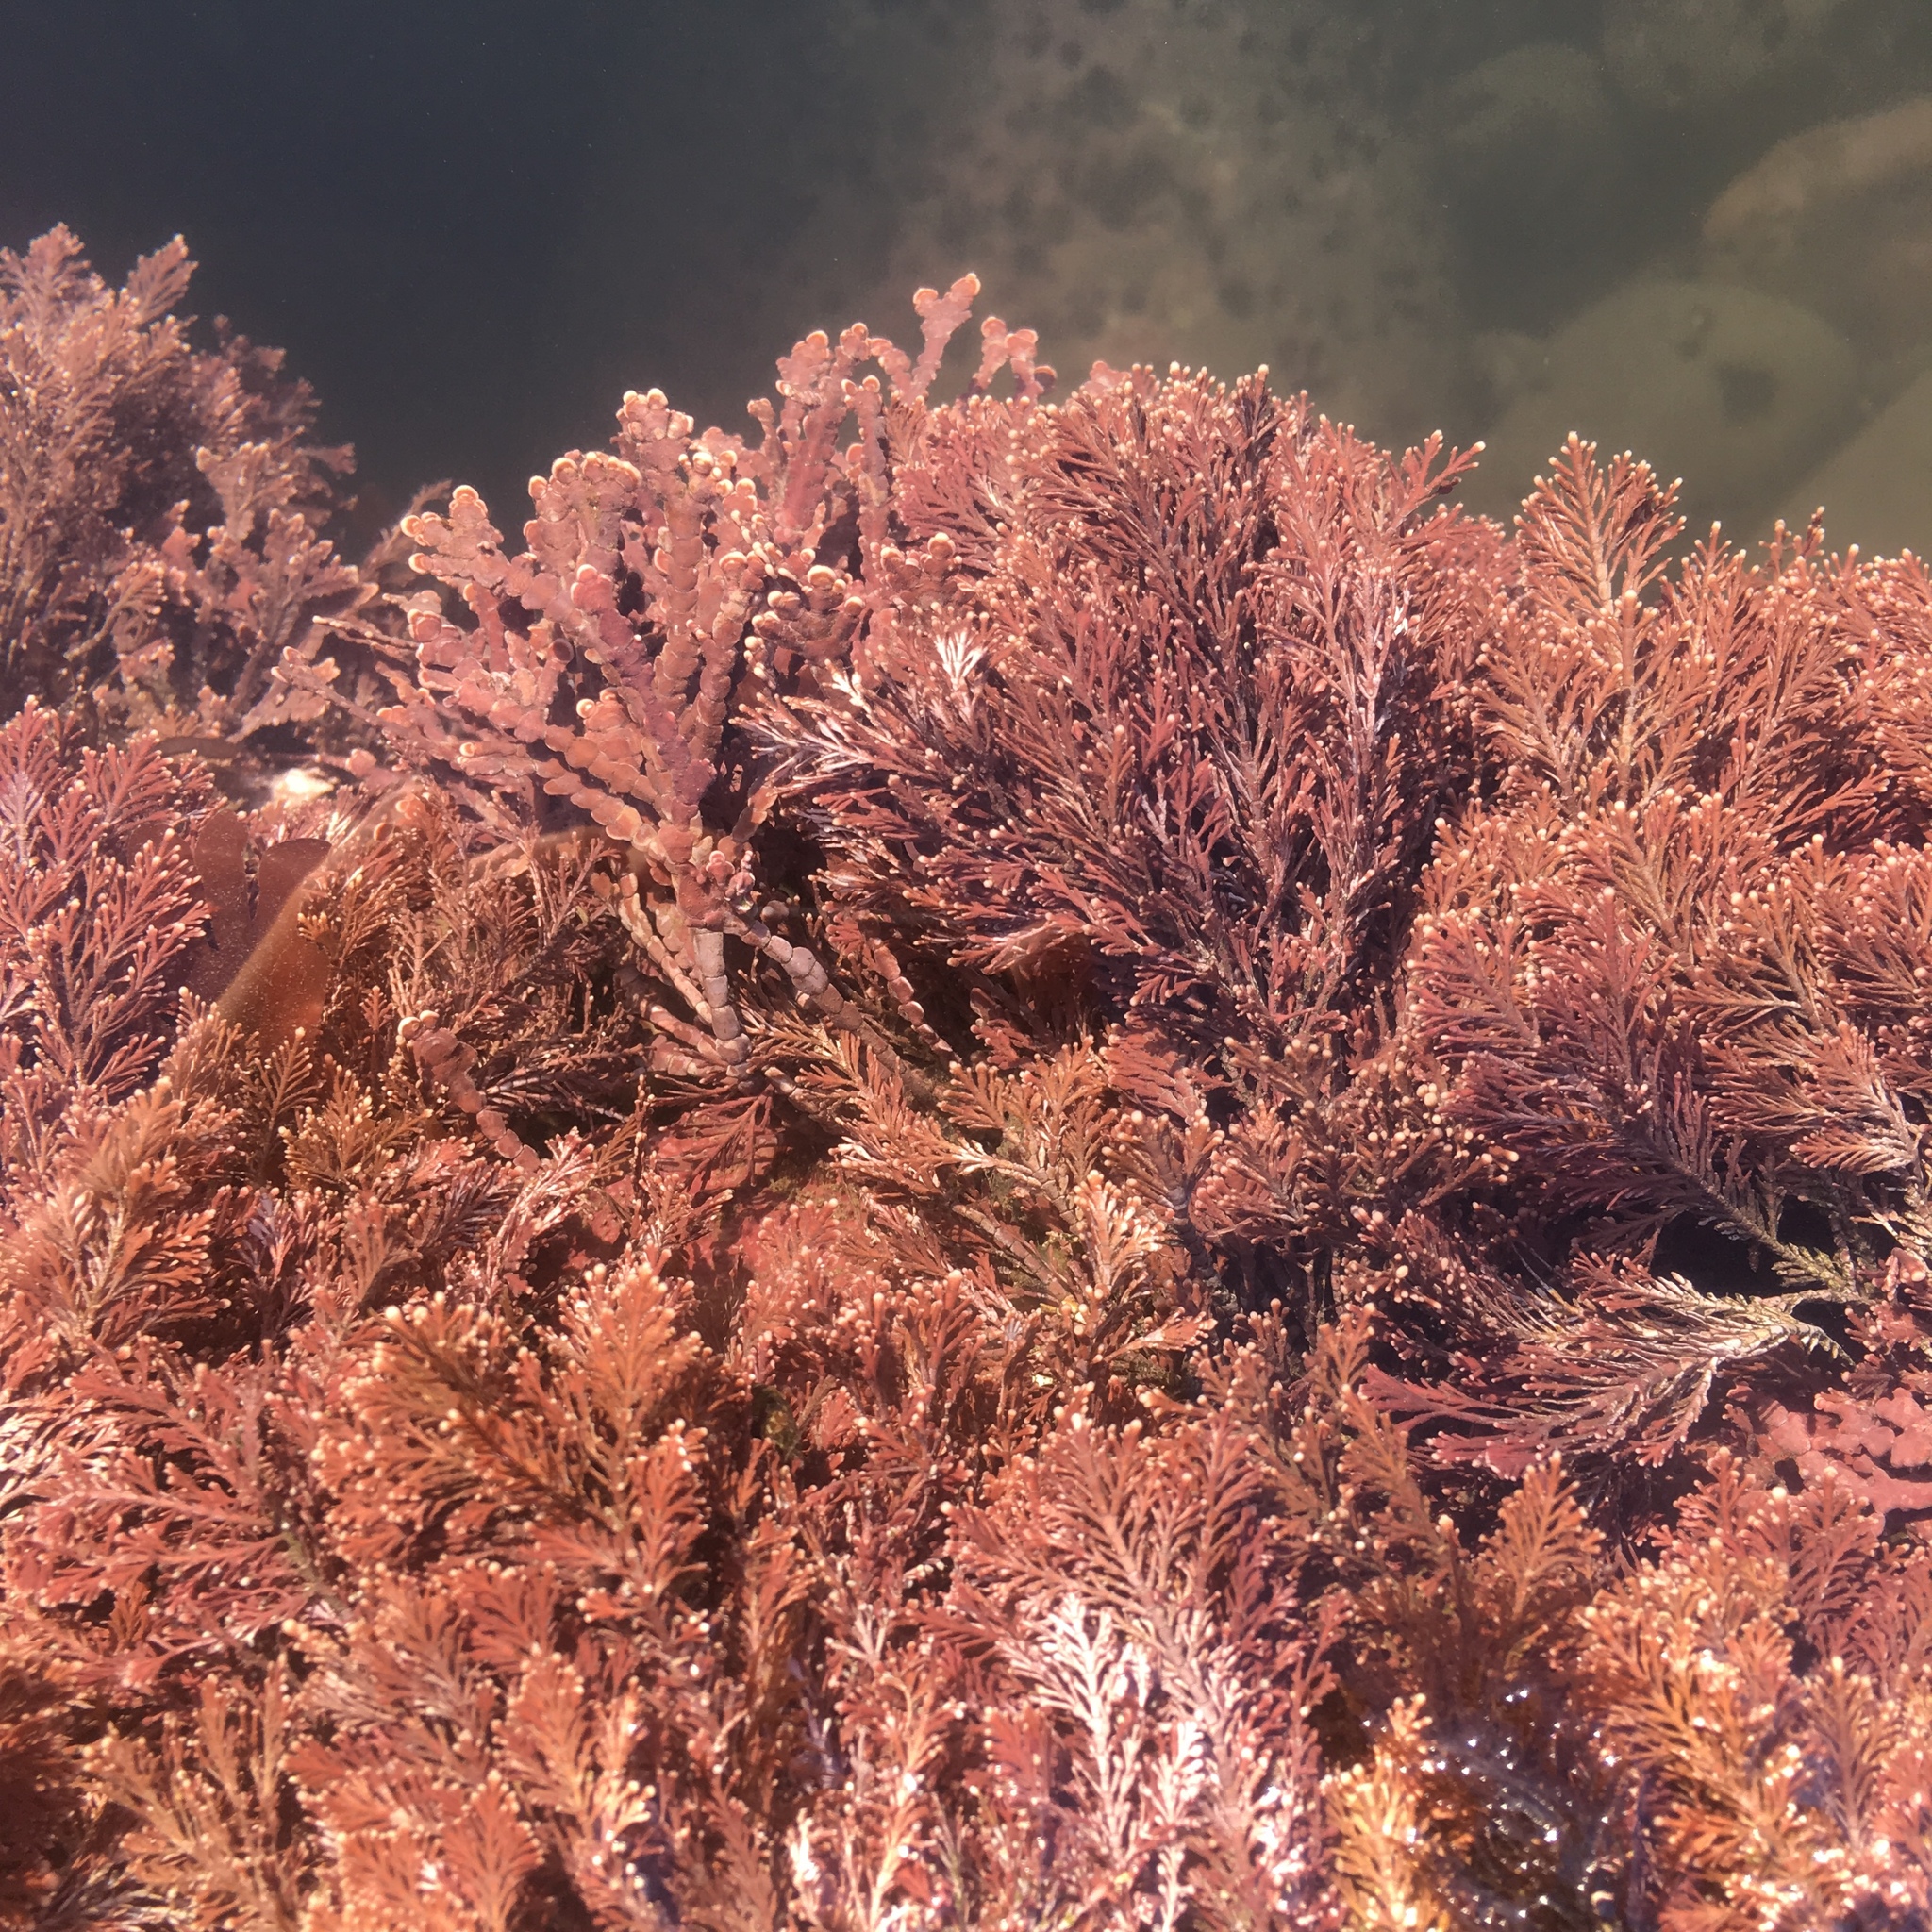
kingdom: Plantae
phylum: Rhodophyta
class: Florideophyceae
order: Corallinales
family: Corallinaceae
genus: Corallina
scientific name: Corallina officinalis
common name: Coral weed
